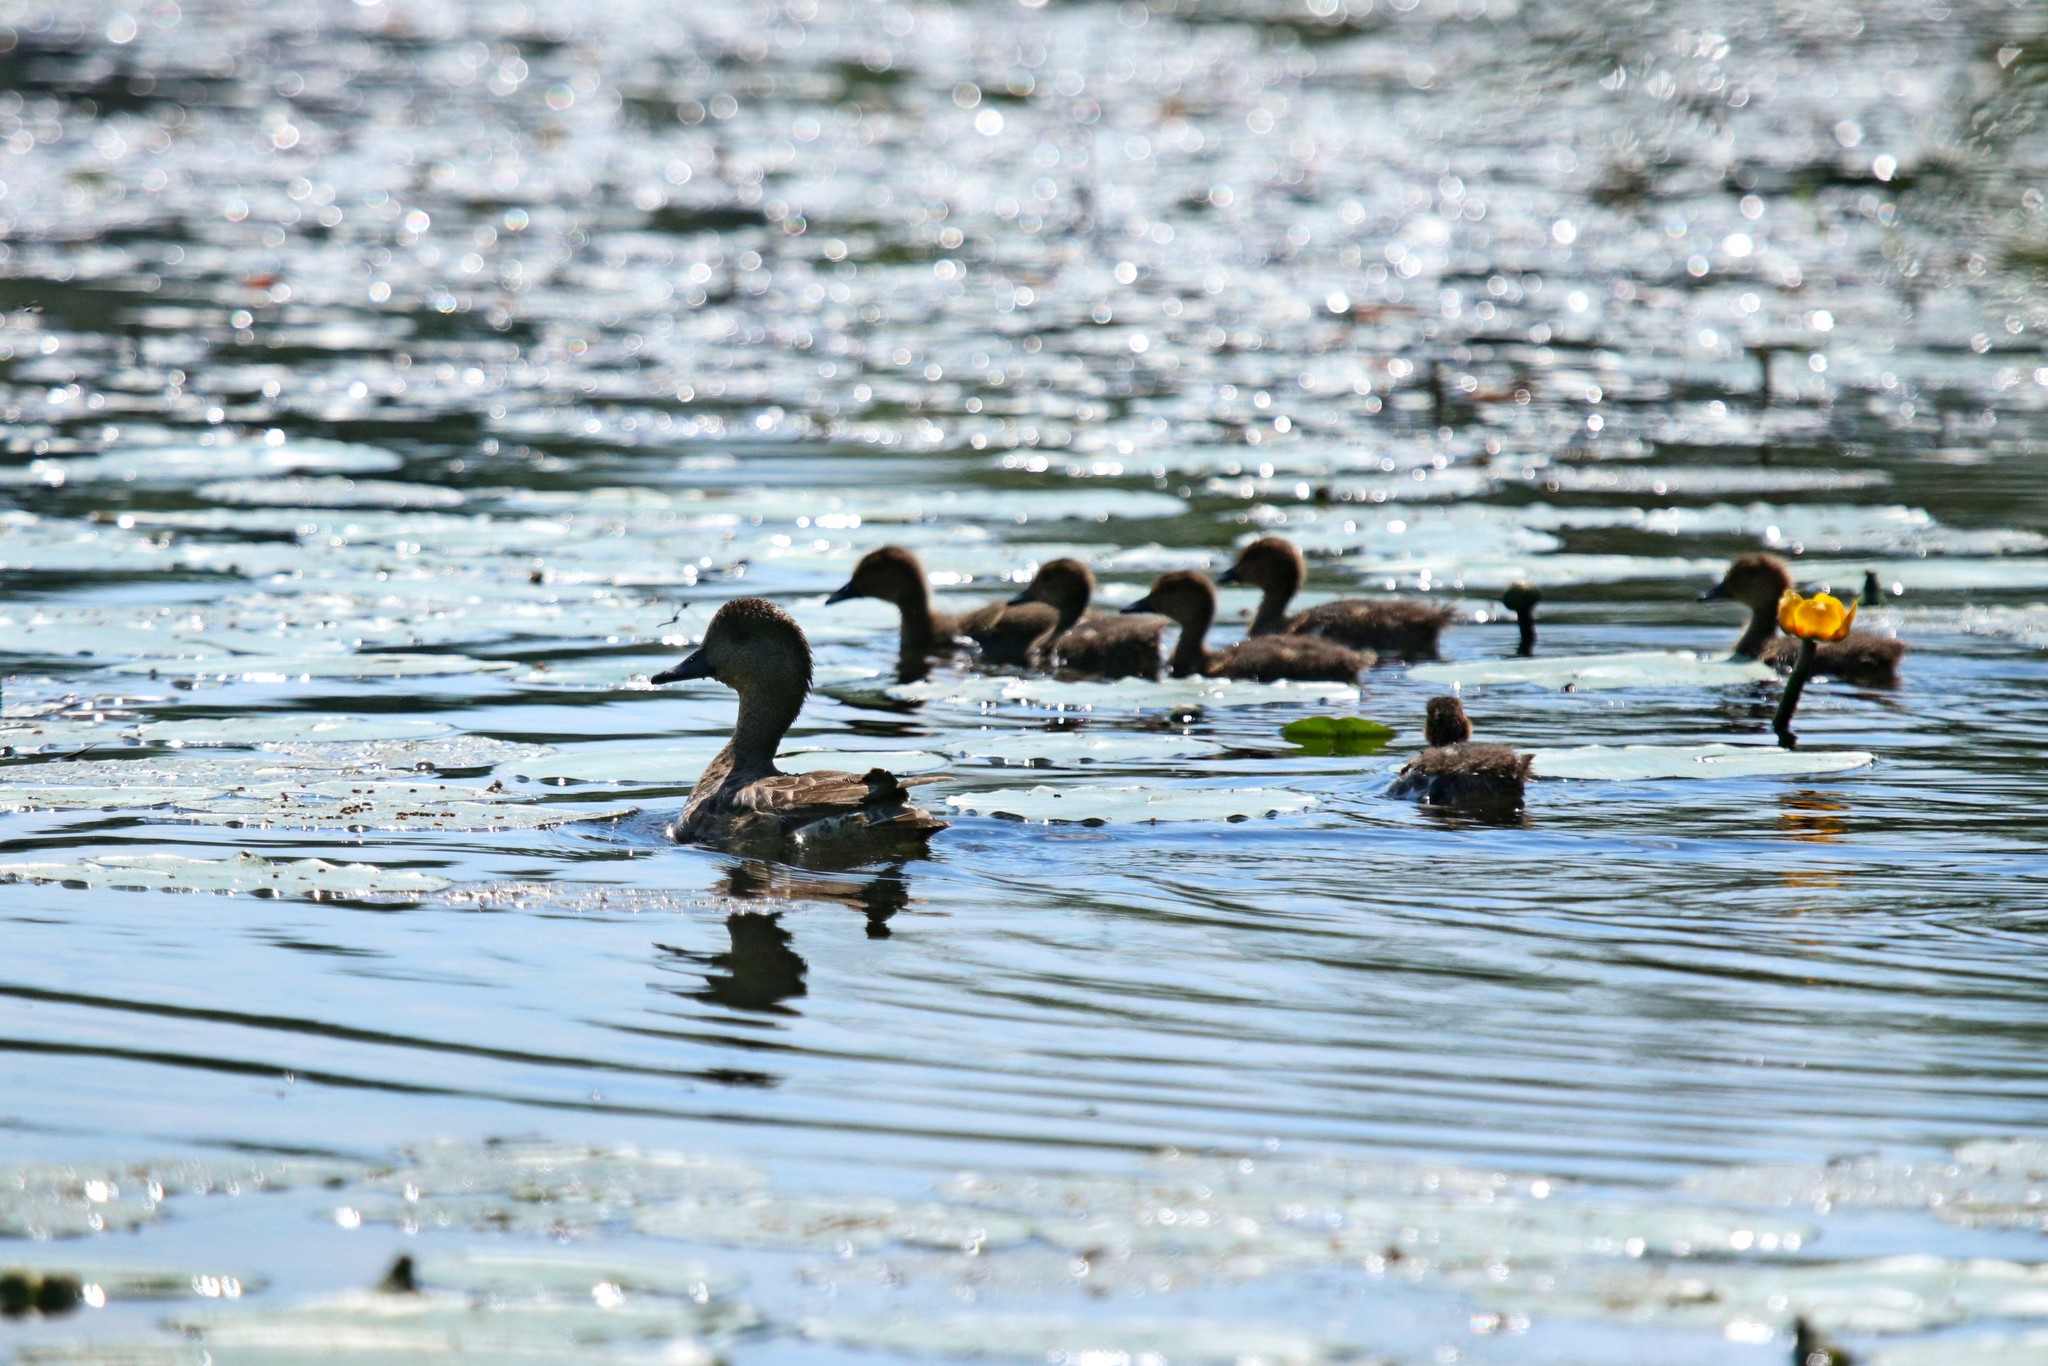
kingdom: Animalia
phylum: Chordata
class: Aves
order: Anseriformes
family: Anatidae
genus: Mareca
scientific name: Mareca penelope
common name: Eurasian wigeon
